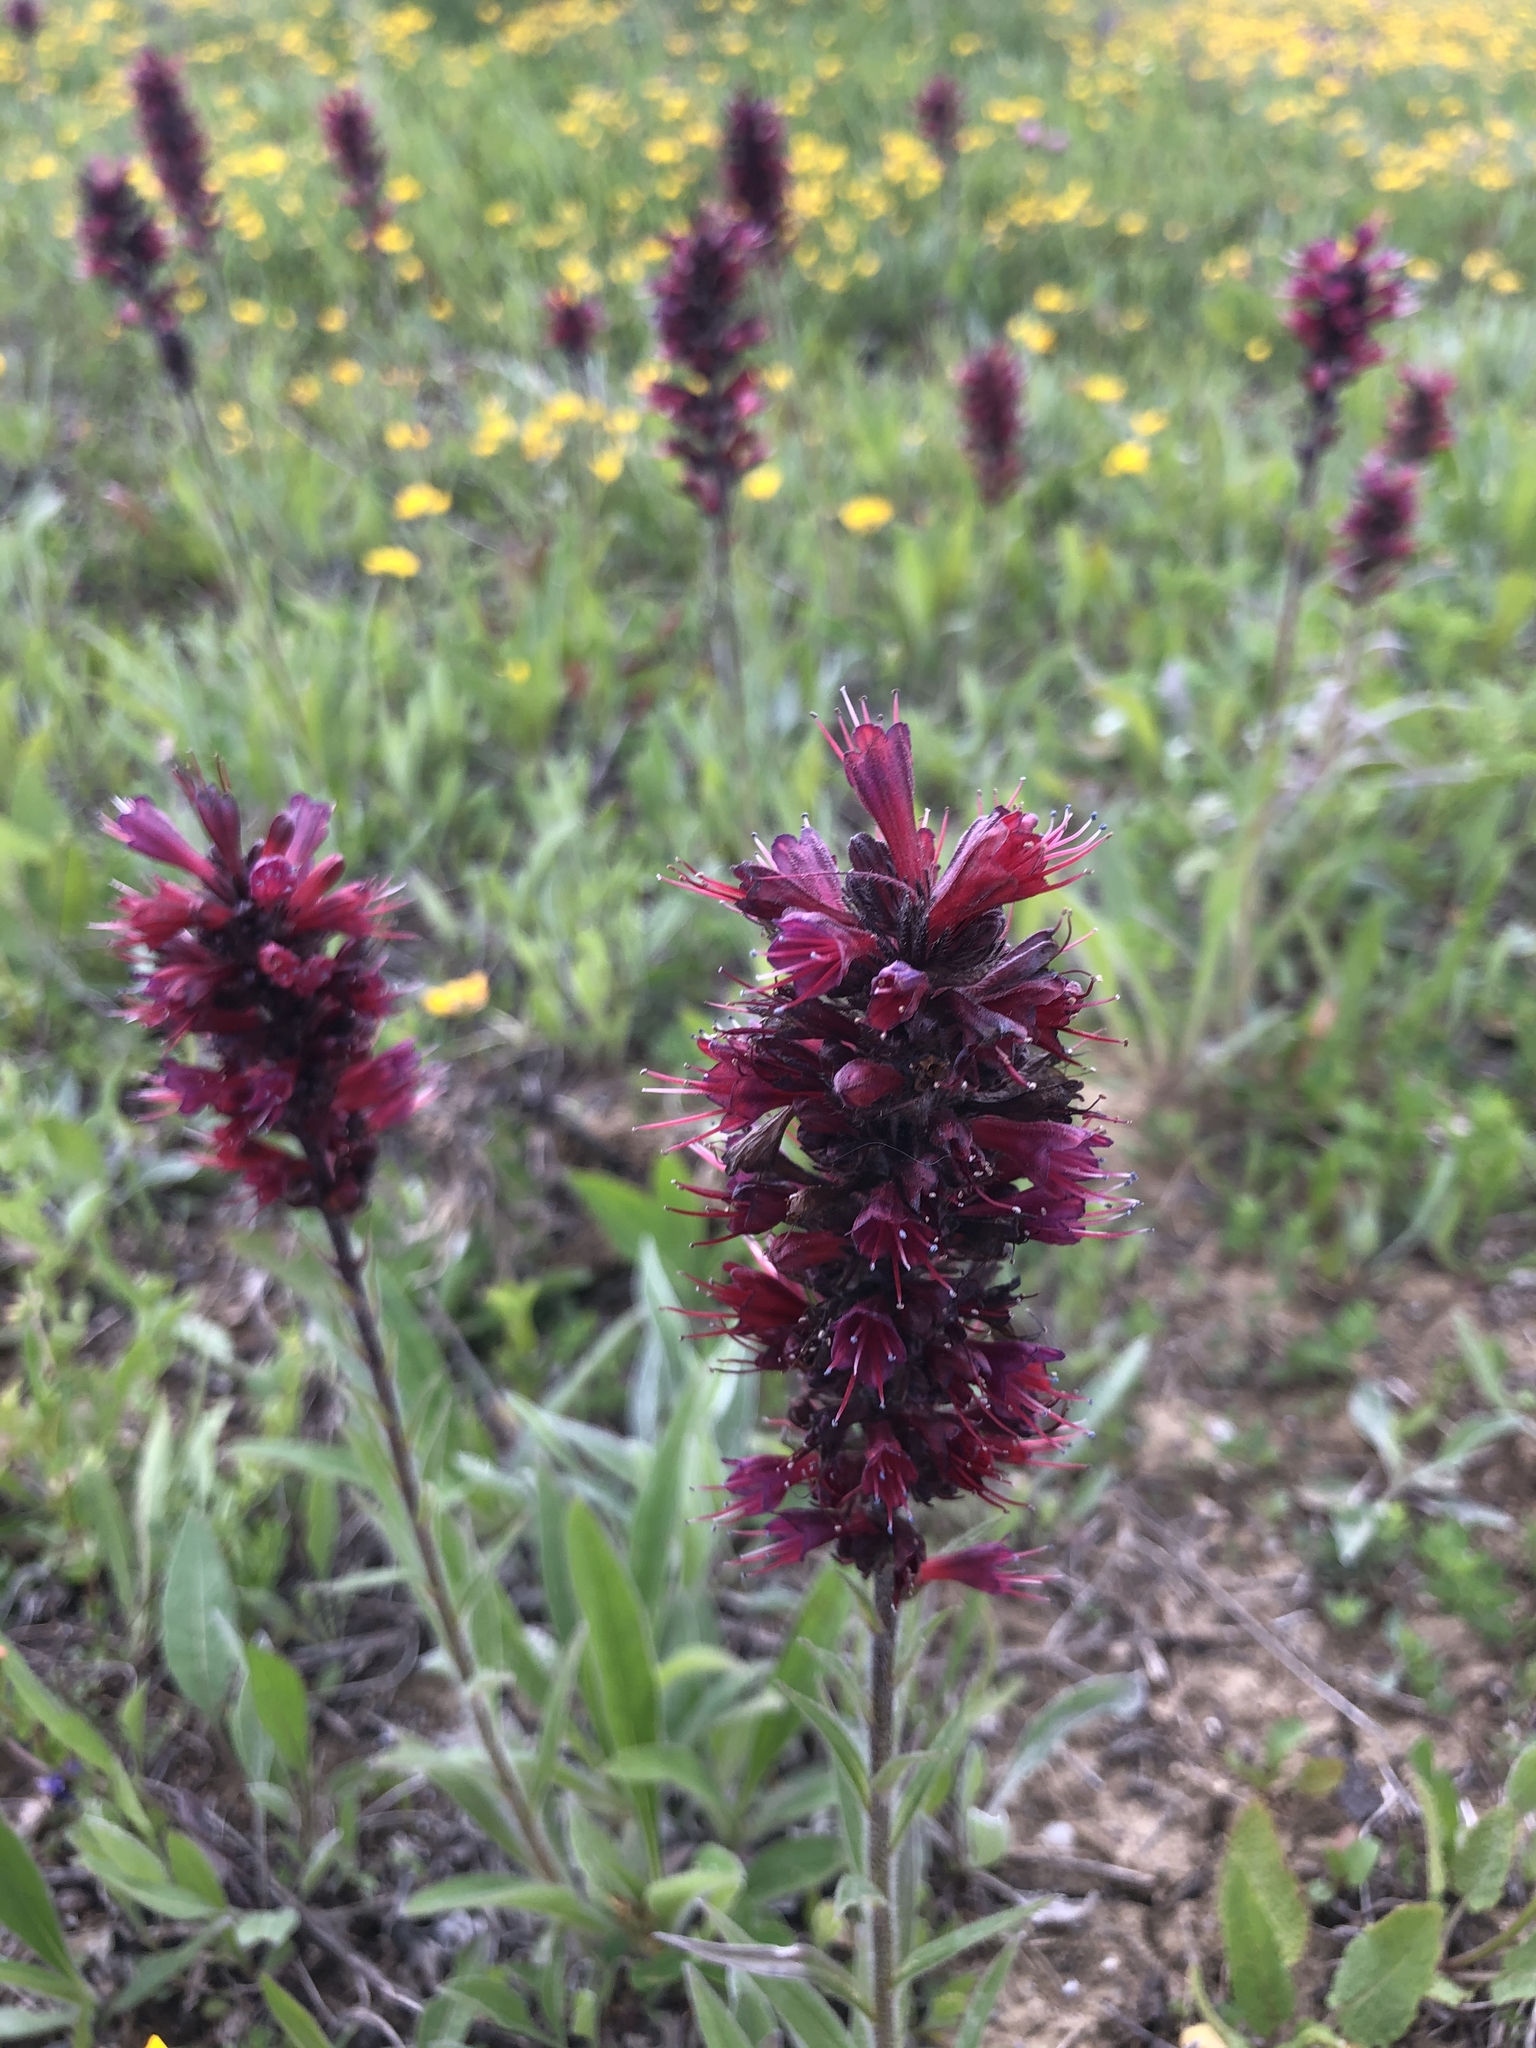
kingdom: Plantae
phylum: Tracheophyta
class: Magnoliopsida
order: Boraginales
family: Boraginaceae
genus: Pontechium
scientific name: Pontechium maculatum
